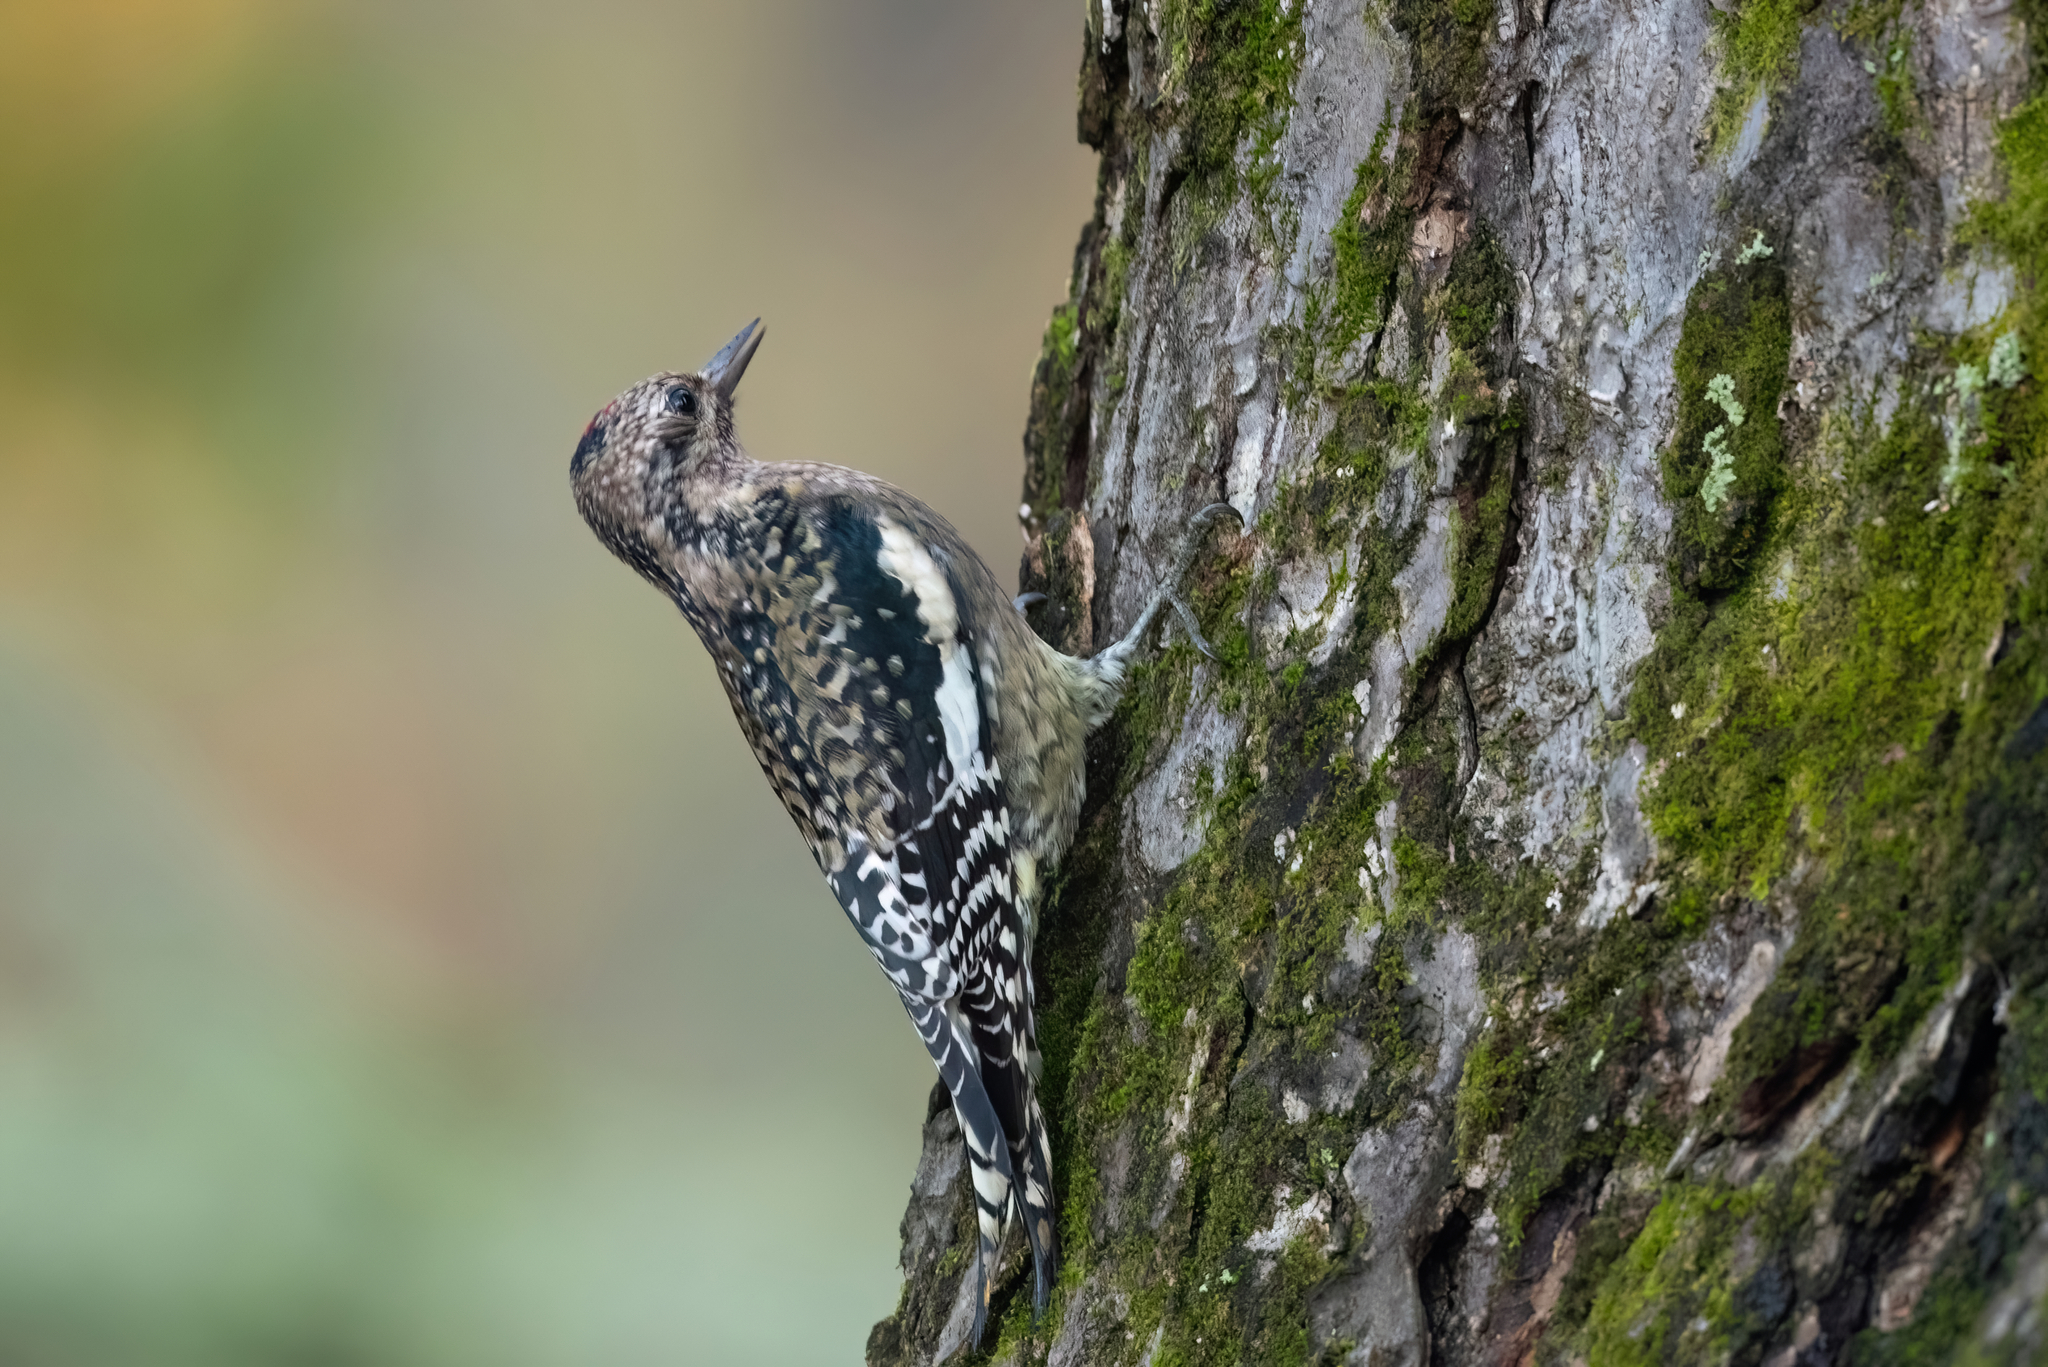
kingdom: Animalia
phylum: Chordata
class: Aves
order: Piciformes
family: Picidae
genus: Sphyrapicus
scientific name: Sphyrapicus varius
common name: Yellow-bellied sapsucker
